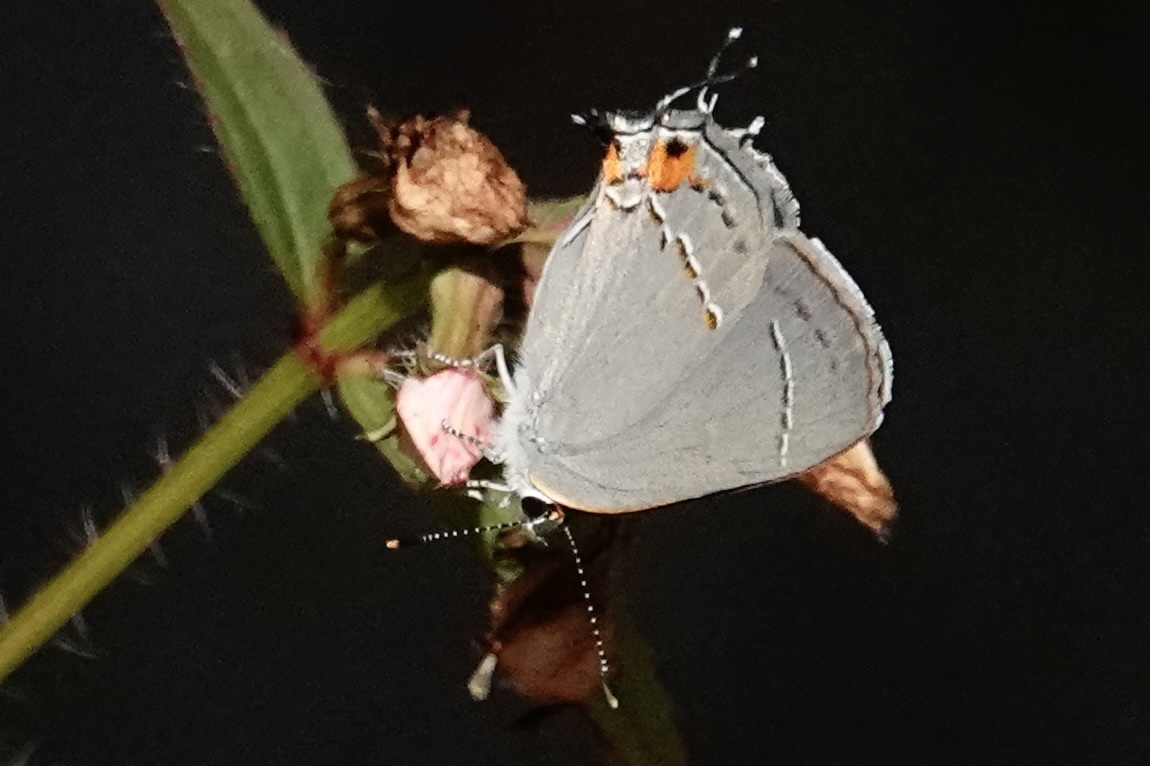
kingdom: Animalia
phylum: Arthropoda
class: Insecta
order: Lepidoptera
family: Lycaenidae
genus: Strymon
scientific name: Strymon melinus
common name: Gray hairstreak
